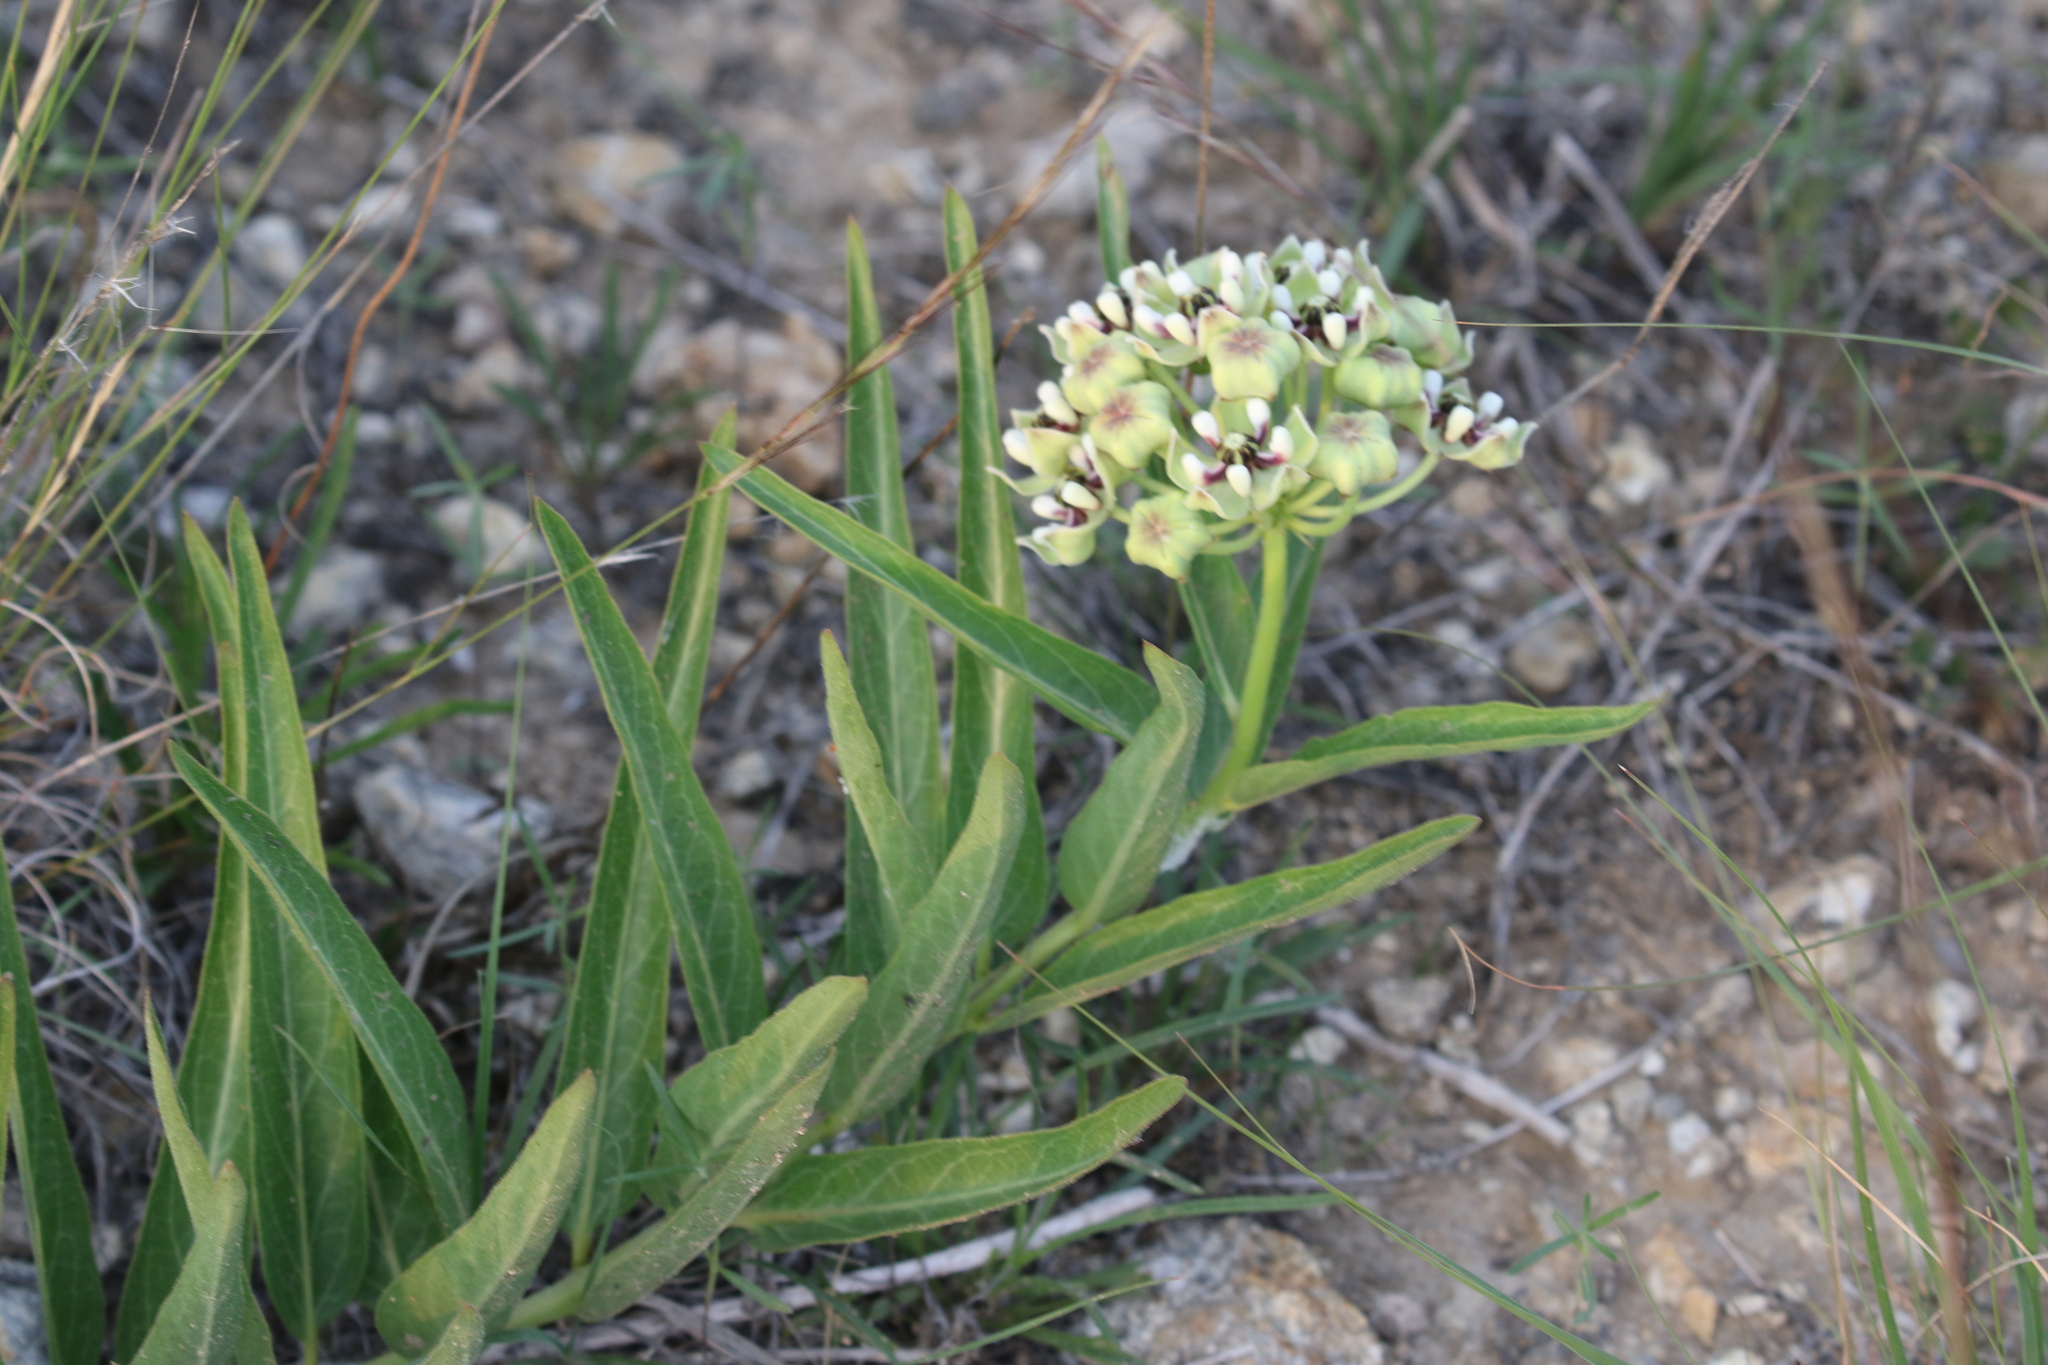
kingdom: Plantae
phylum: Tracheophyta
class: Magnoliopsida
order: Gentianales
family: Apocynaceae
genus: Asclepias
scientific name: Asclepias asperula
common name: Antelope horns
